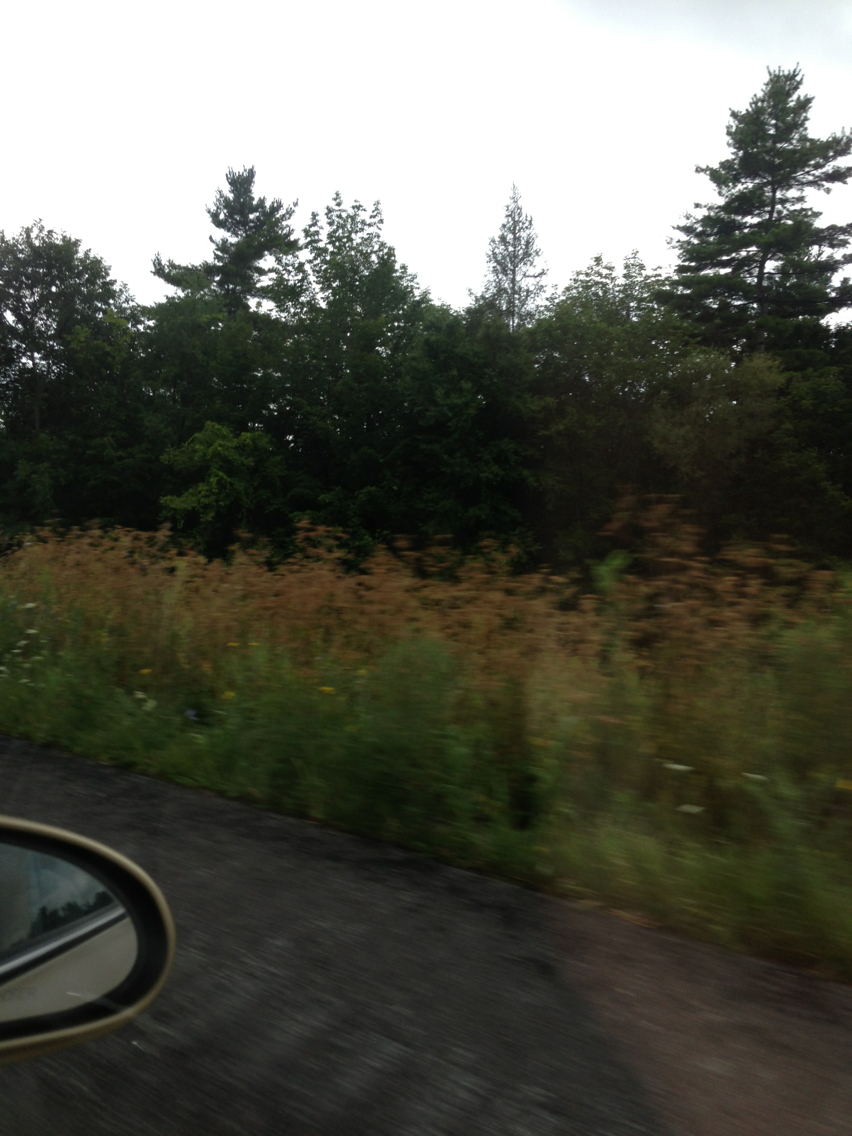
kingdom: Plantae
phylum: Tracheophyta
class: Magnoliopsida
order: Apiales
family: Apiaceae
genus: Daucus
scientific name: Daucus carota
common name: Wild carrot
